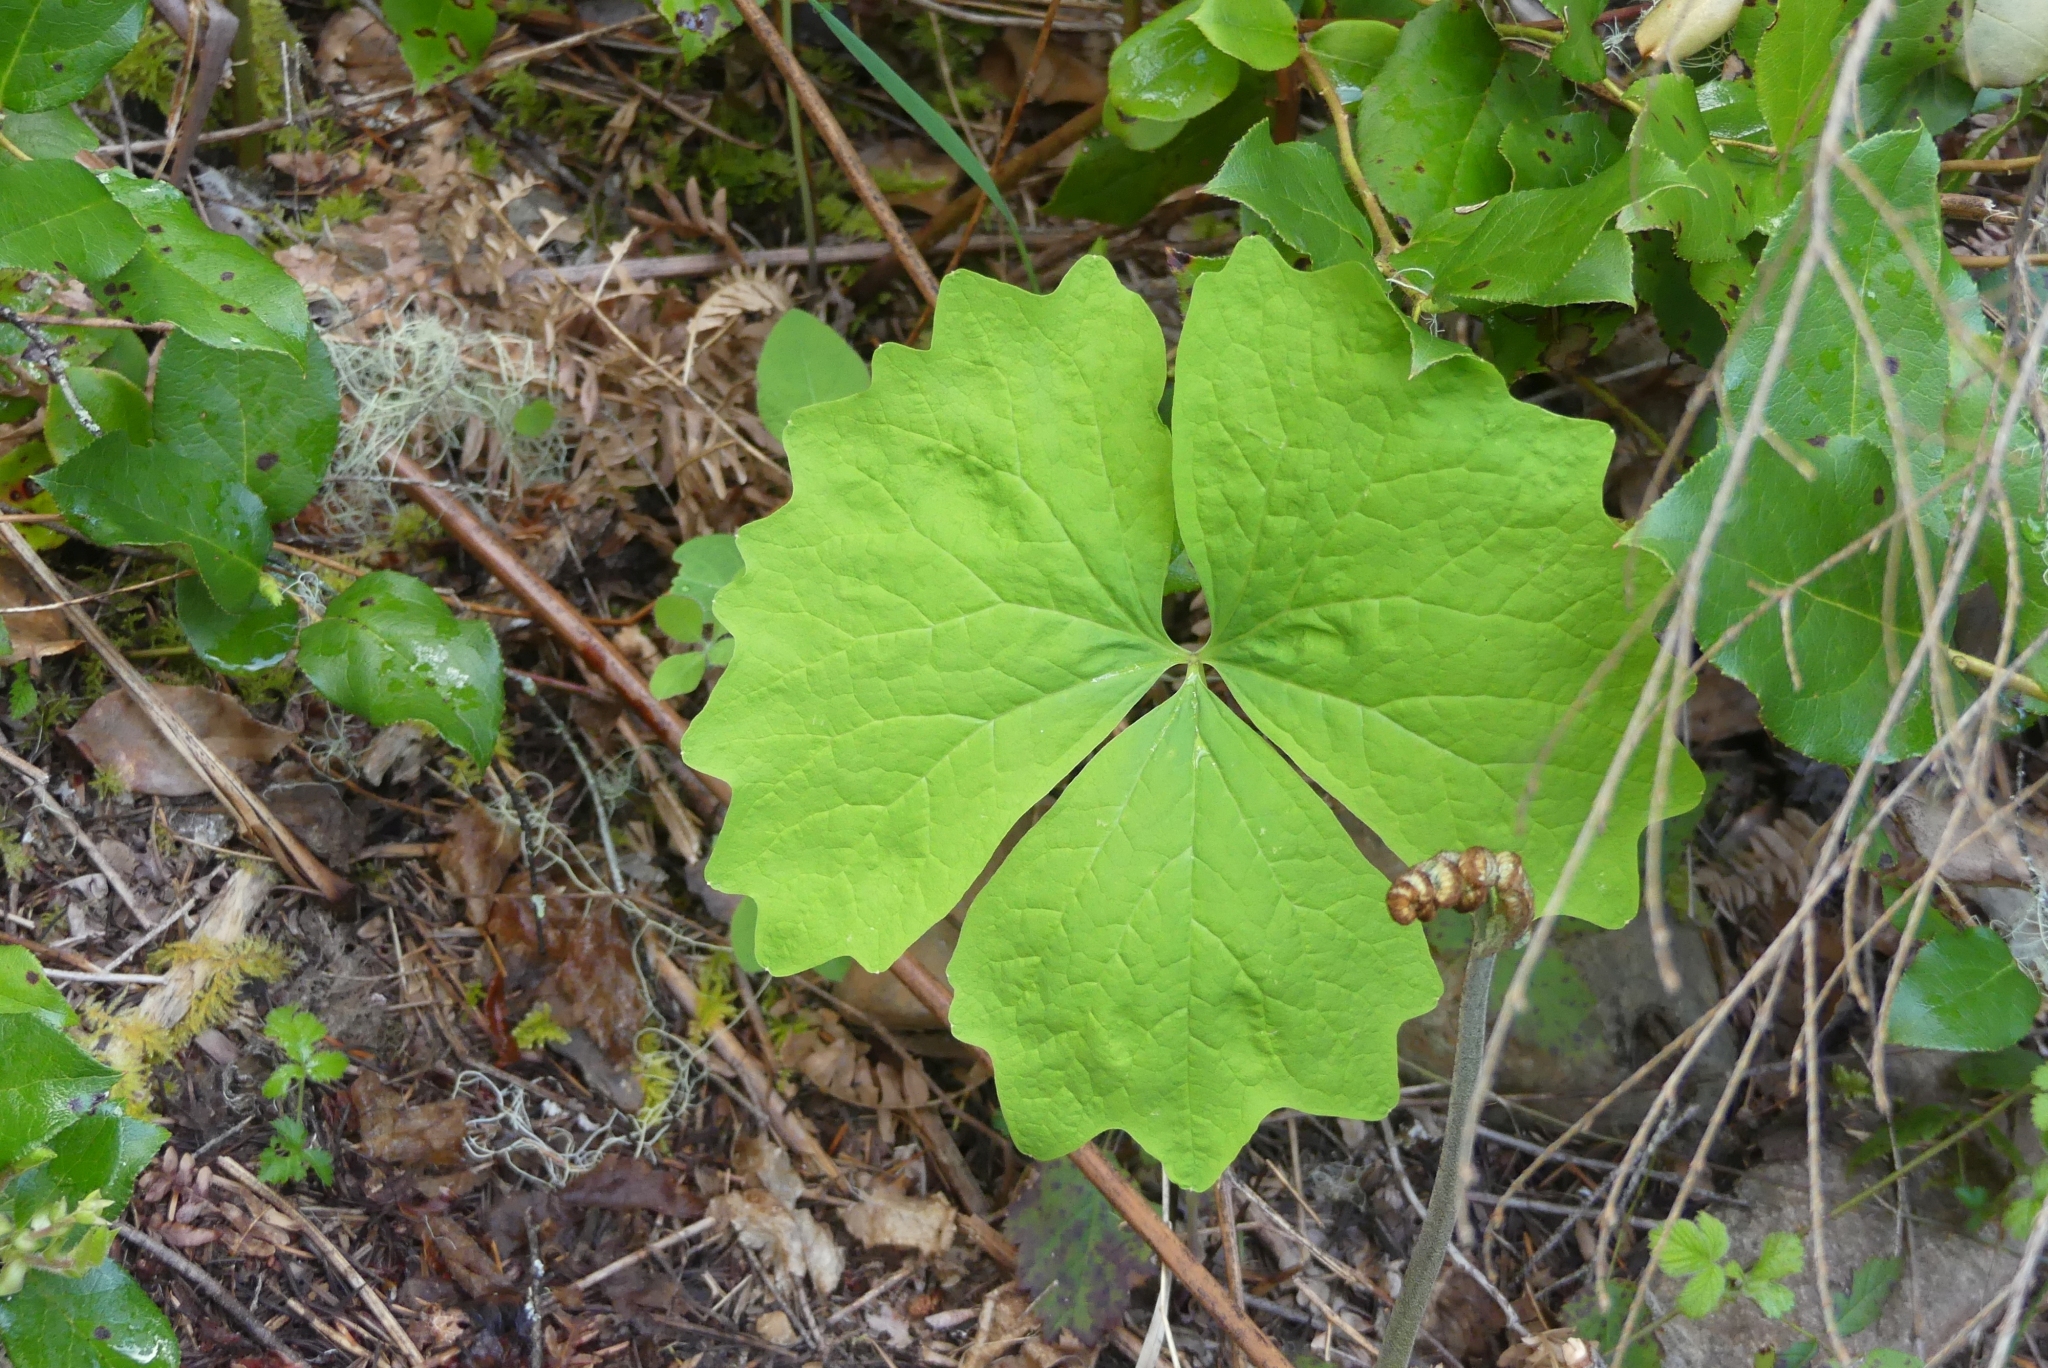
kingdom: Plantae
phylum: Tracheophyta
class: Magnoliopsida
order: Ranunculales
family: Berberidaceae
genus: Achlys
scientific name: Achlys triphylla
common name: Vanilla-leaf
